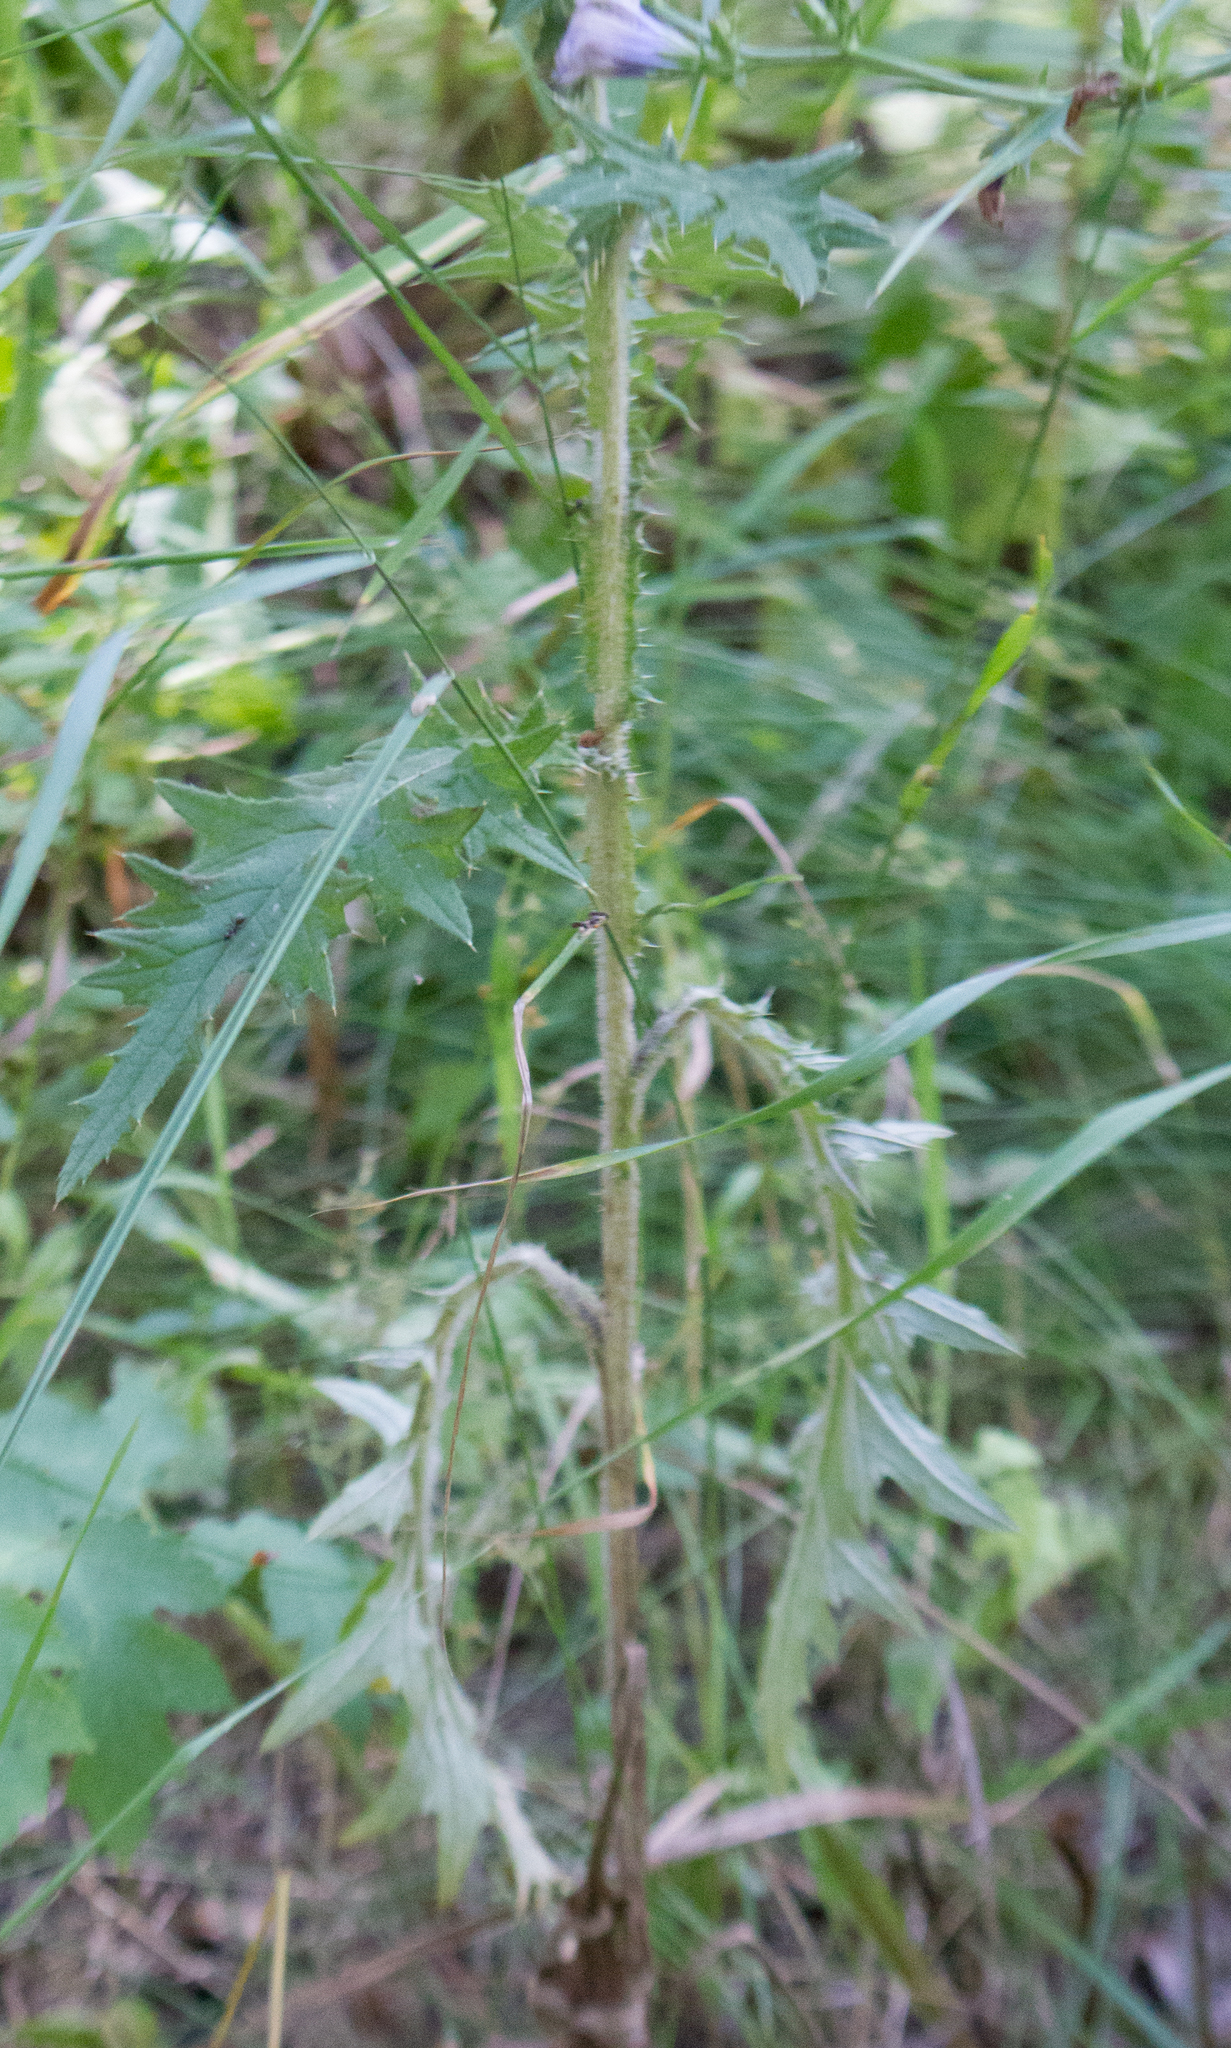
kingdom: Plantae
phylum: Tracheophyta
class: Magnoliopsida
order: Asterales
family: Asteraceae
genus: Cirsium
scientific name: Cirsium vulgare
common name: Bull thistle
